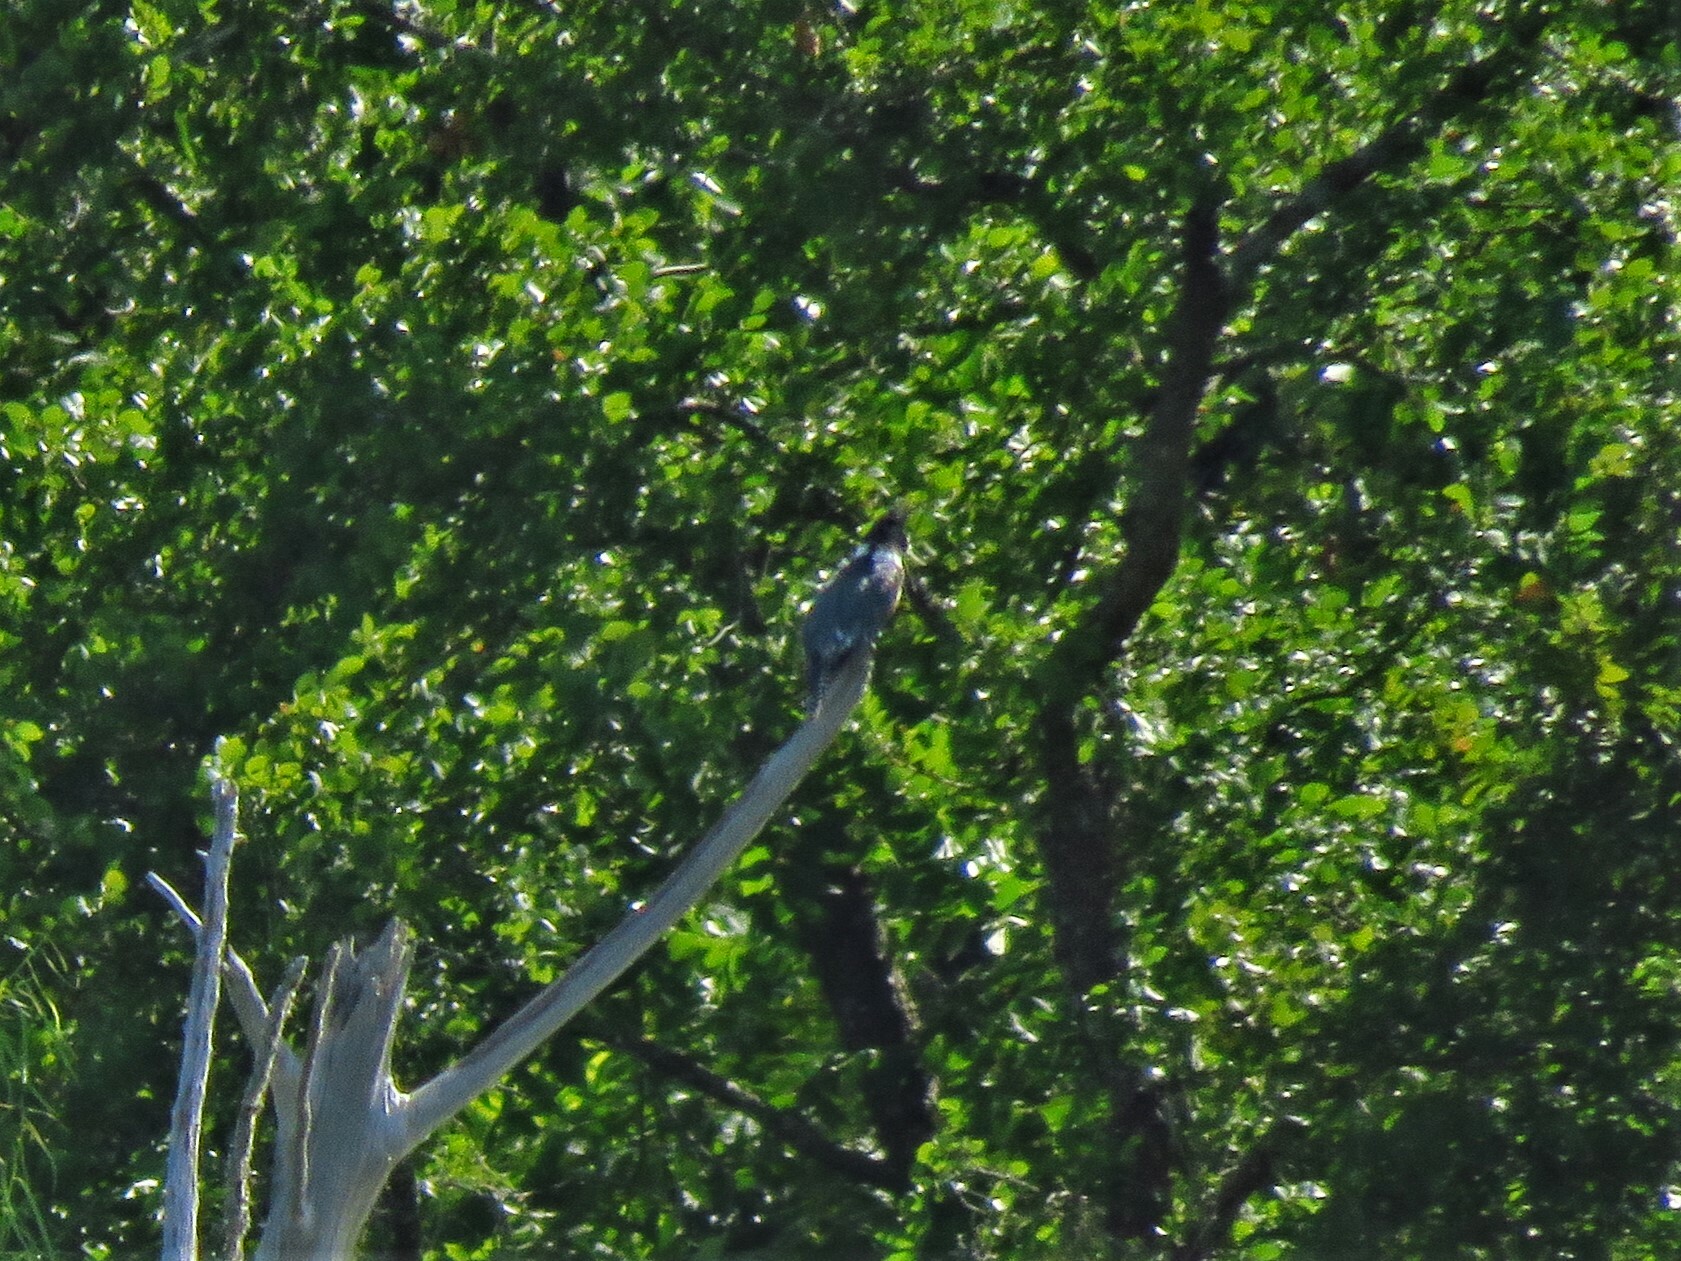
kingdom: Animalia
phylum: Chordata
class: Aves
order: Coraciiformes
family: Alcedinidae
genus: Megaceryle
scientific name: Megaceryle alcyon
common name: Belted kingfisher
